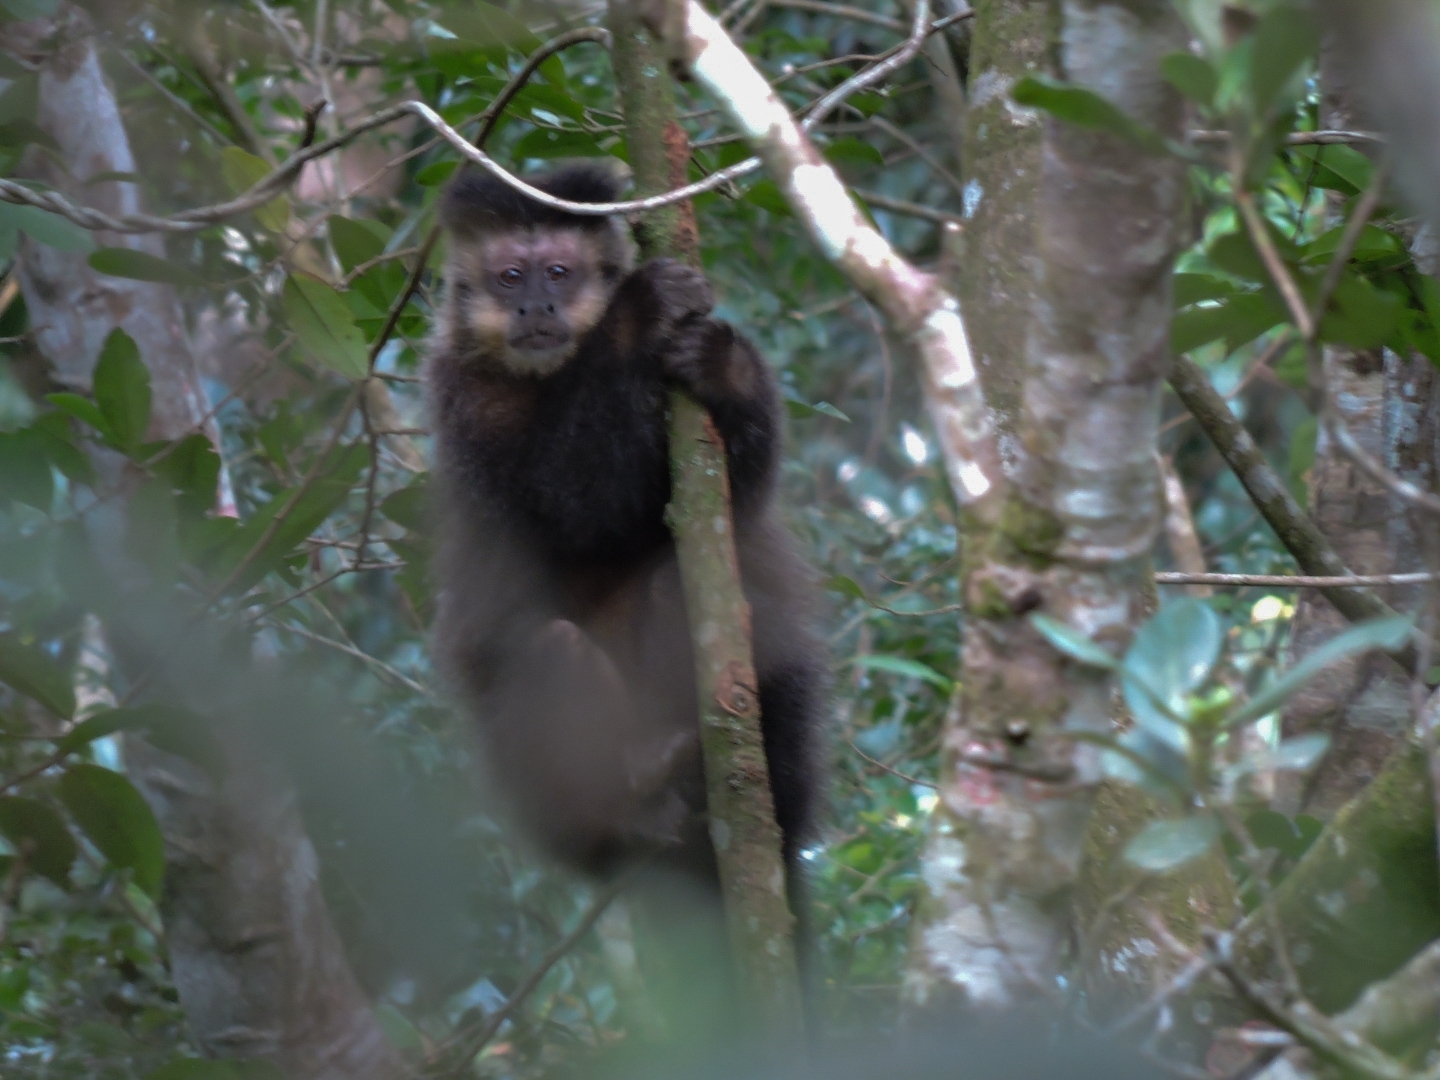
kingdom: Animalia
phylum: Chordata
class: Mammalia
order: Primates
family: Cebidae
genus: Sapajus
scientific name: Sapajus nigritus
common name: Black capuchin
